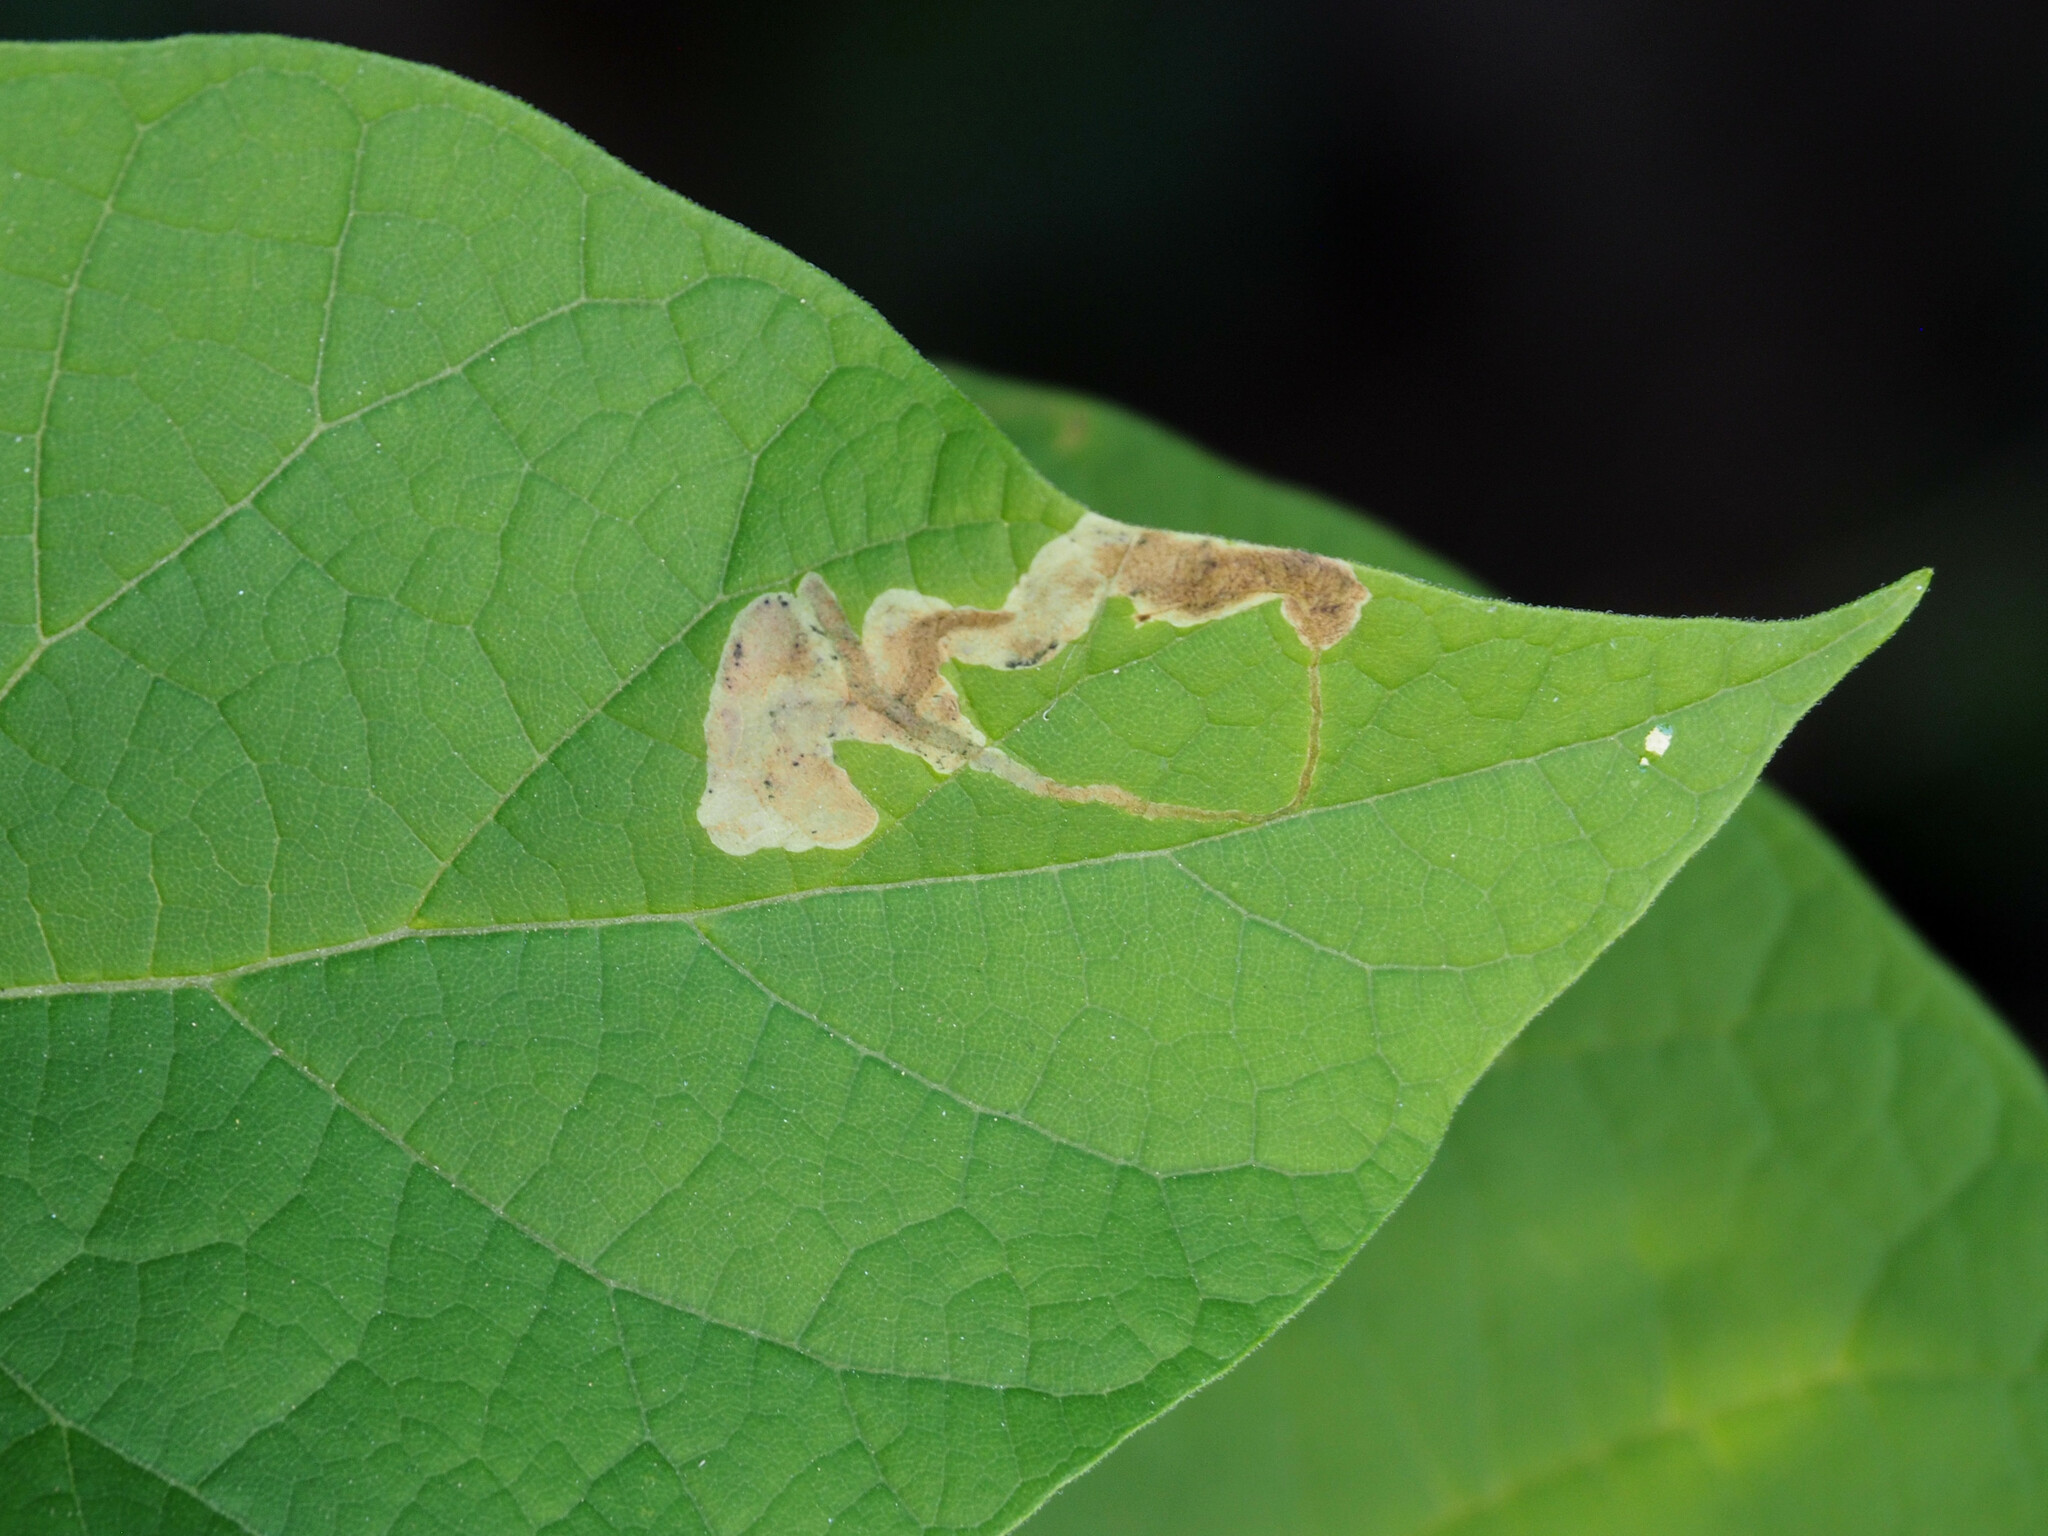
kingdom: Animalia
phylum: Arthropoda
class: Insecta
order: Diptera
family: Agromyzidae
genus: Amauromyza
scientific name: Amauromyza pleuralis
